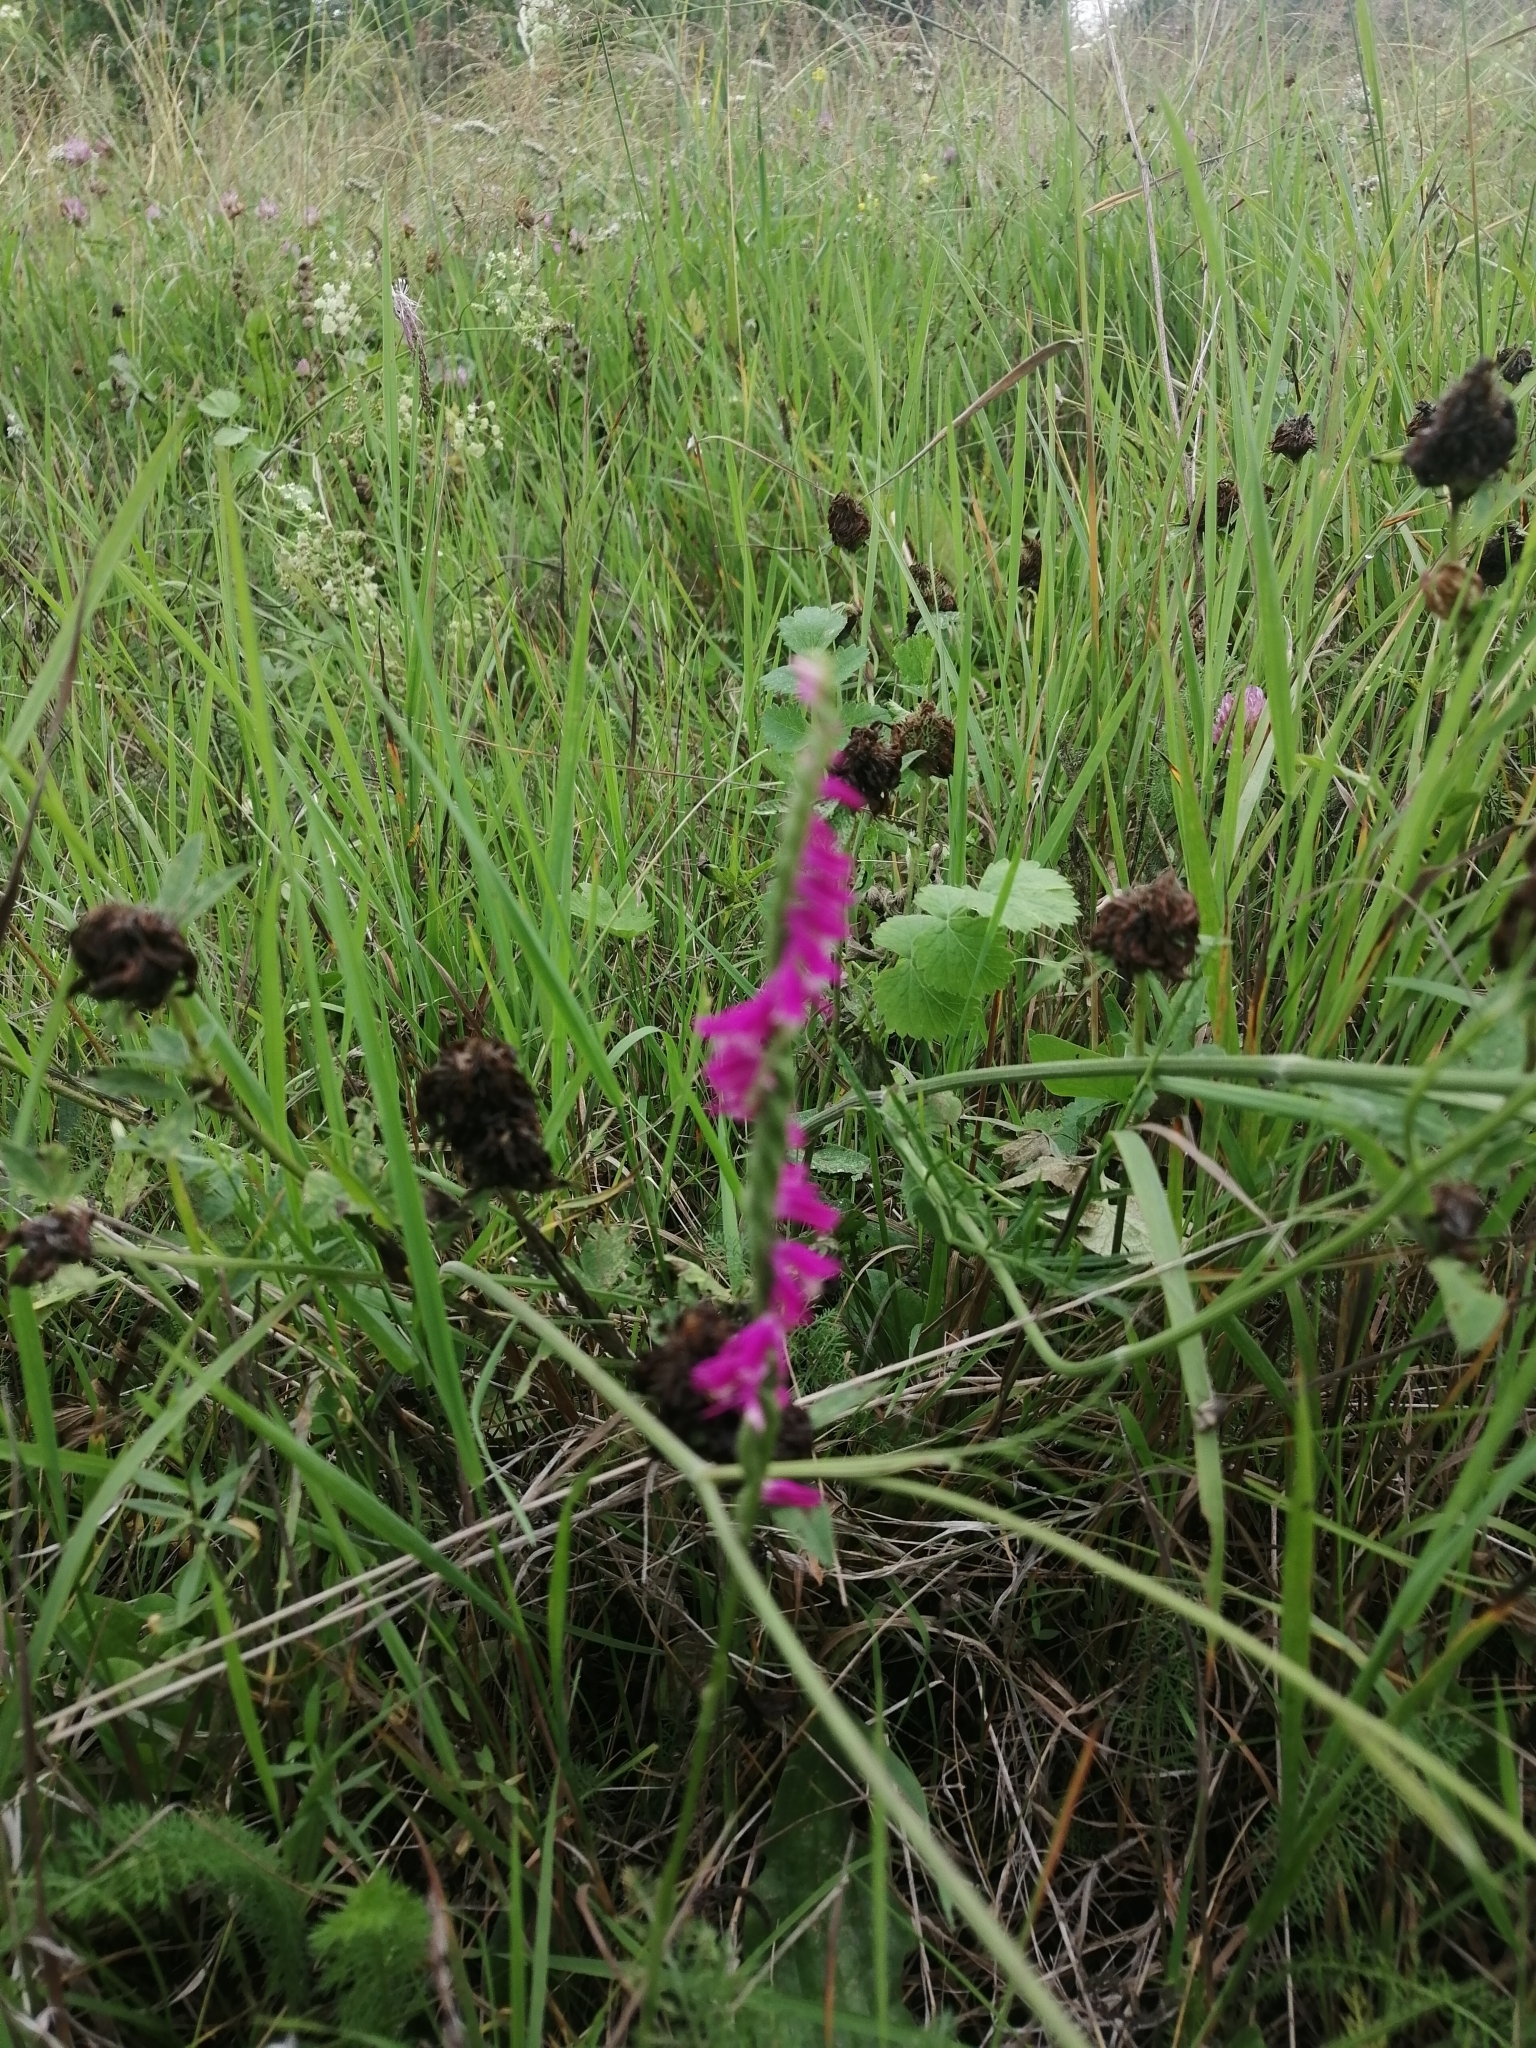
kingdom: Plantae
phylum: Tracheophyta
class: Liliopsida
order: Asparagales
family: Orchidaceae
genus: Spiranthes
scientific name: Spiranthes australis
